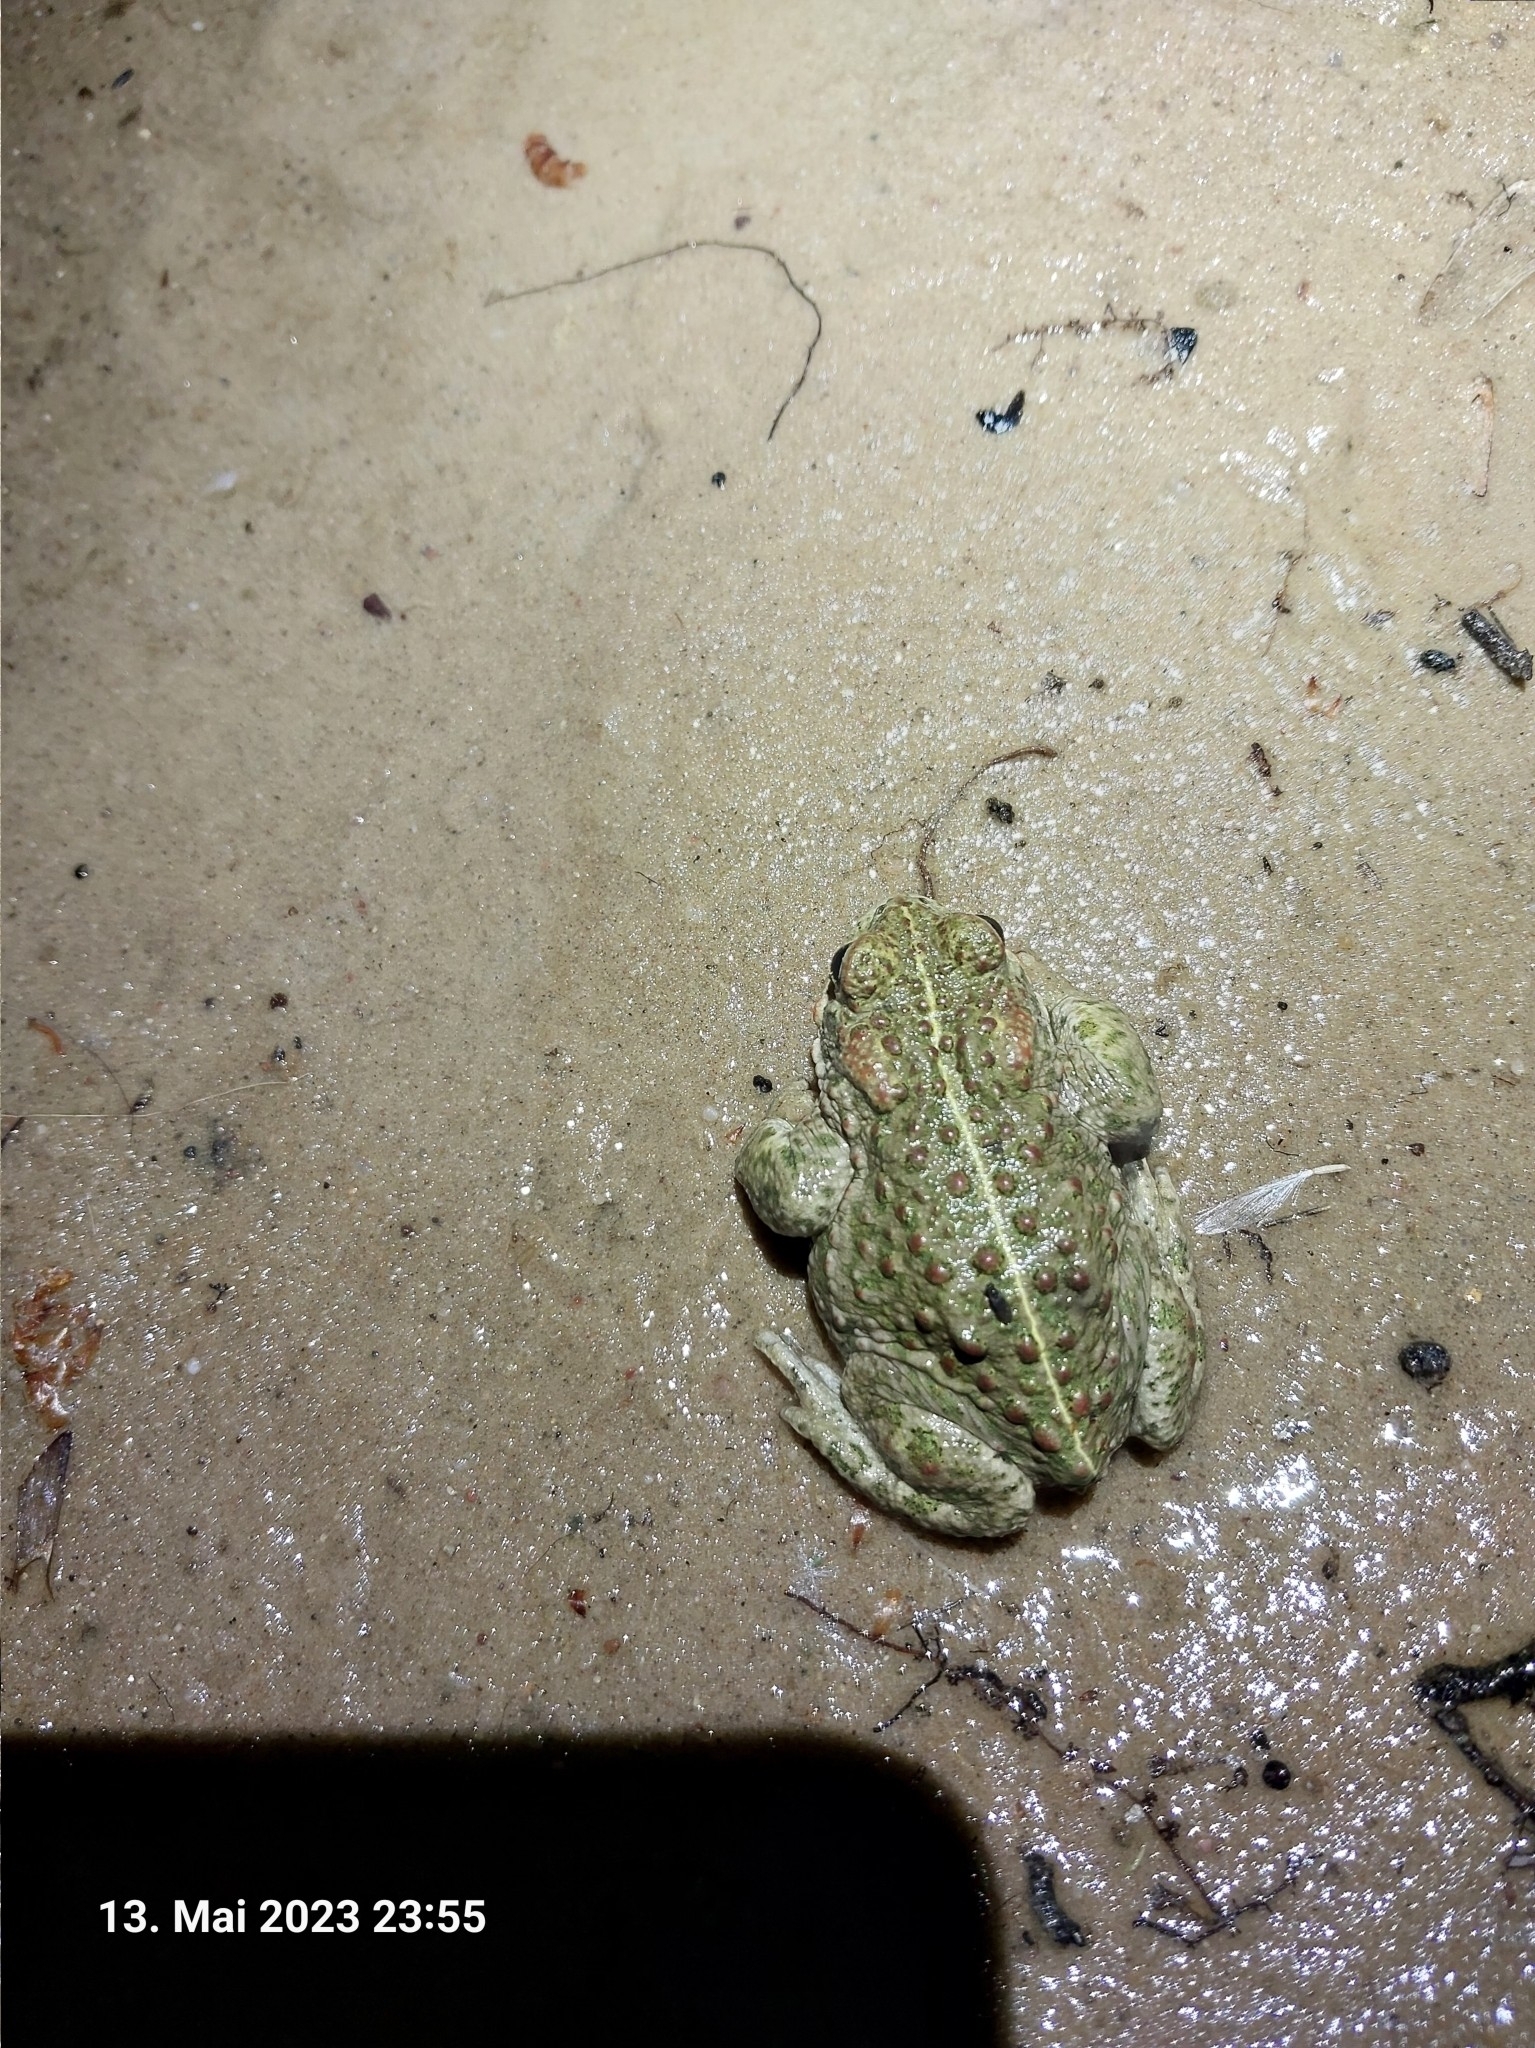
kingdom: Animalia
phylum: Chordata
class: Amphibia
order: Anura
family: Bufonidae
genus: Epidalea
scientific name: Epidalea calamita
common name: Natterjack toad
